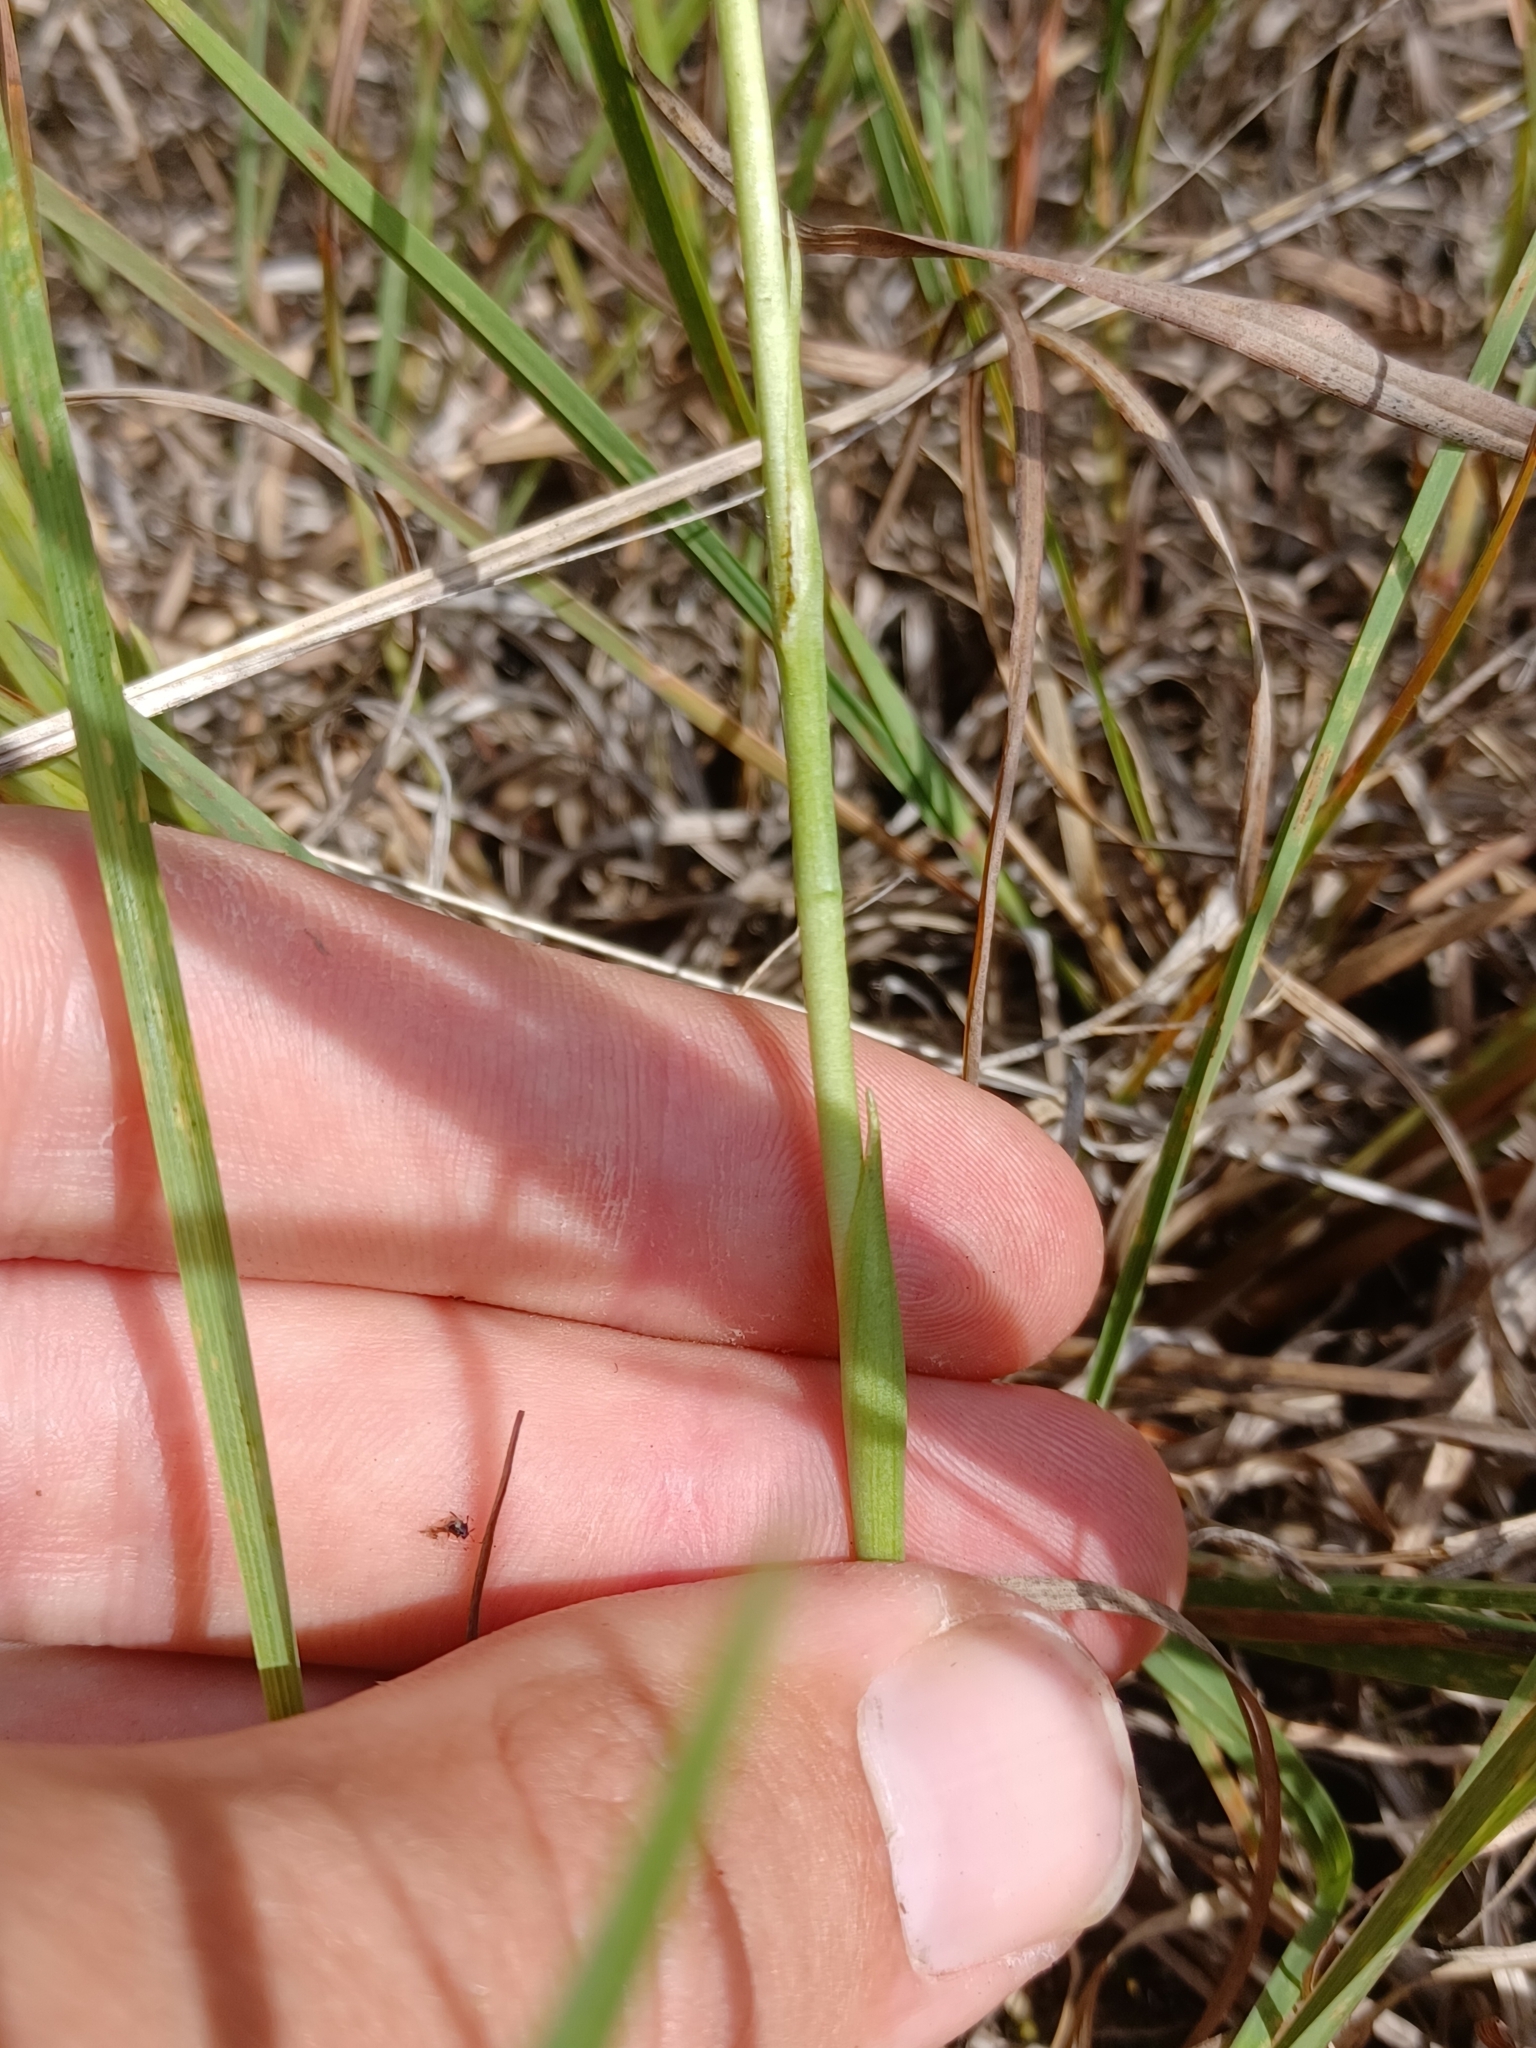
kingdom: Plantae
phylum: Tracheophyta
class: Liliopsida
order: Asparagales
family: Orchidaceae
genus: Spiranthes
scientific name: Spiranthes magnicamporum
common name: Great plains ladies'-tresses
